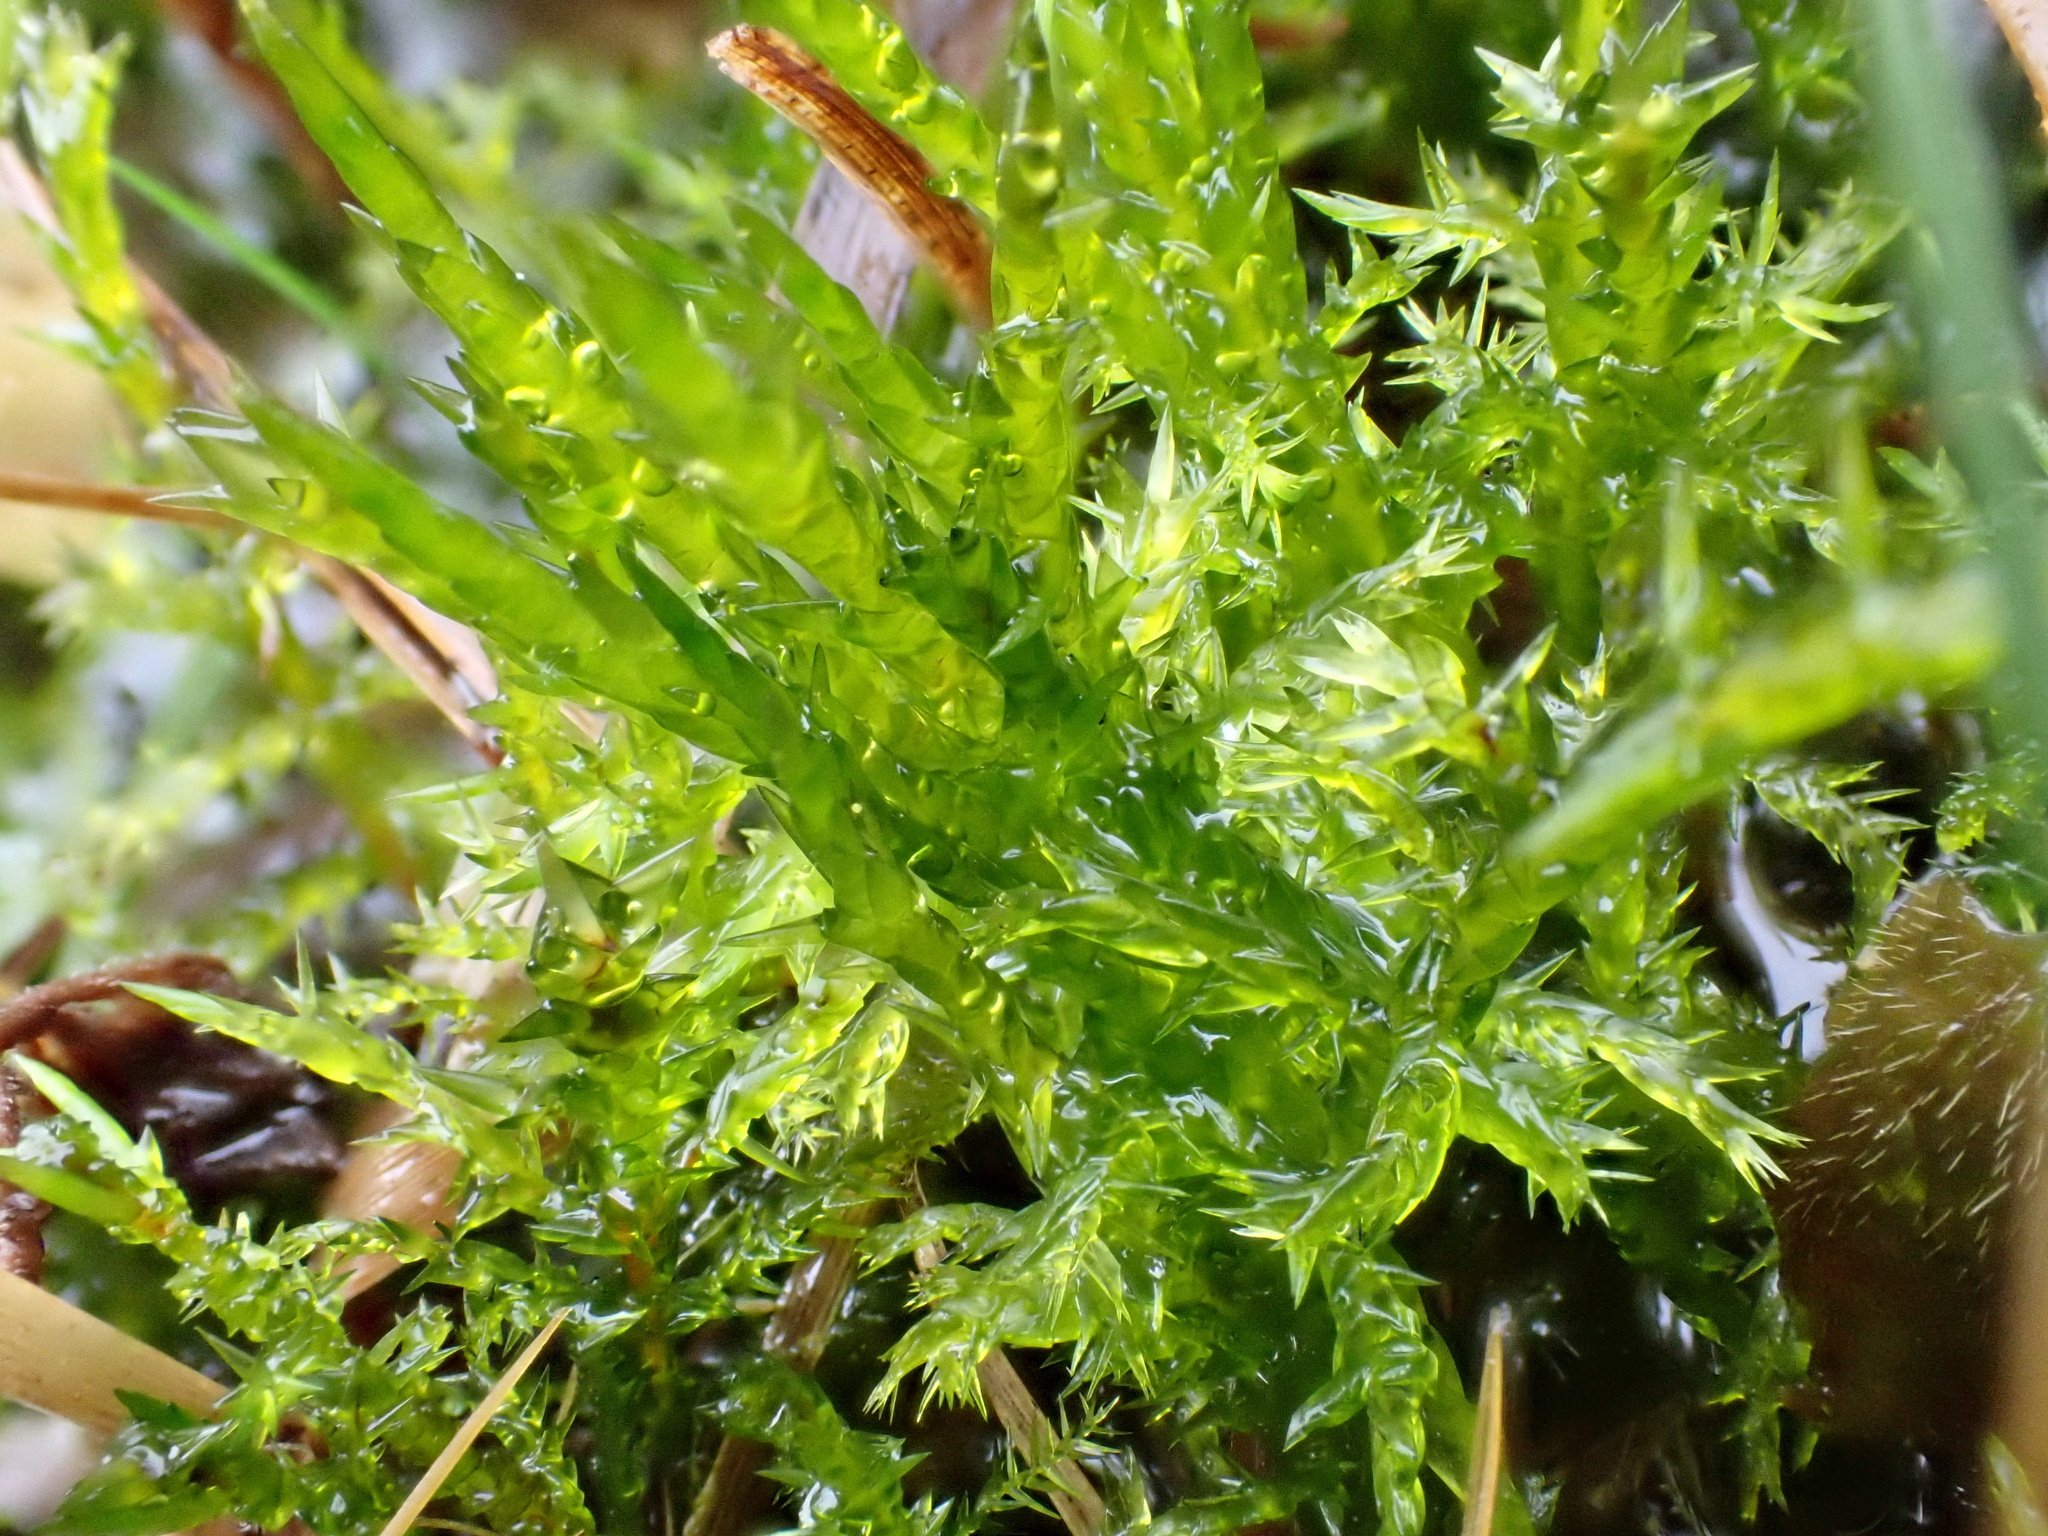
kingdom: Plantae
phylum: Bryophyta
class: Bryopsida
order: Hypnales
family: Pylaisiaceae
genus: Calliergonella
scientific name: Calliergonella cuspidata
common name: Common large wetland moss
